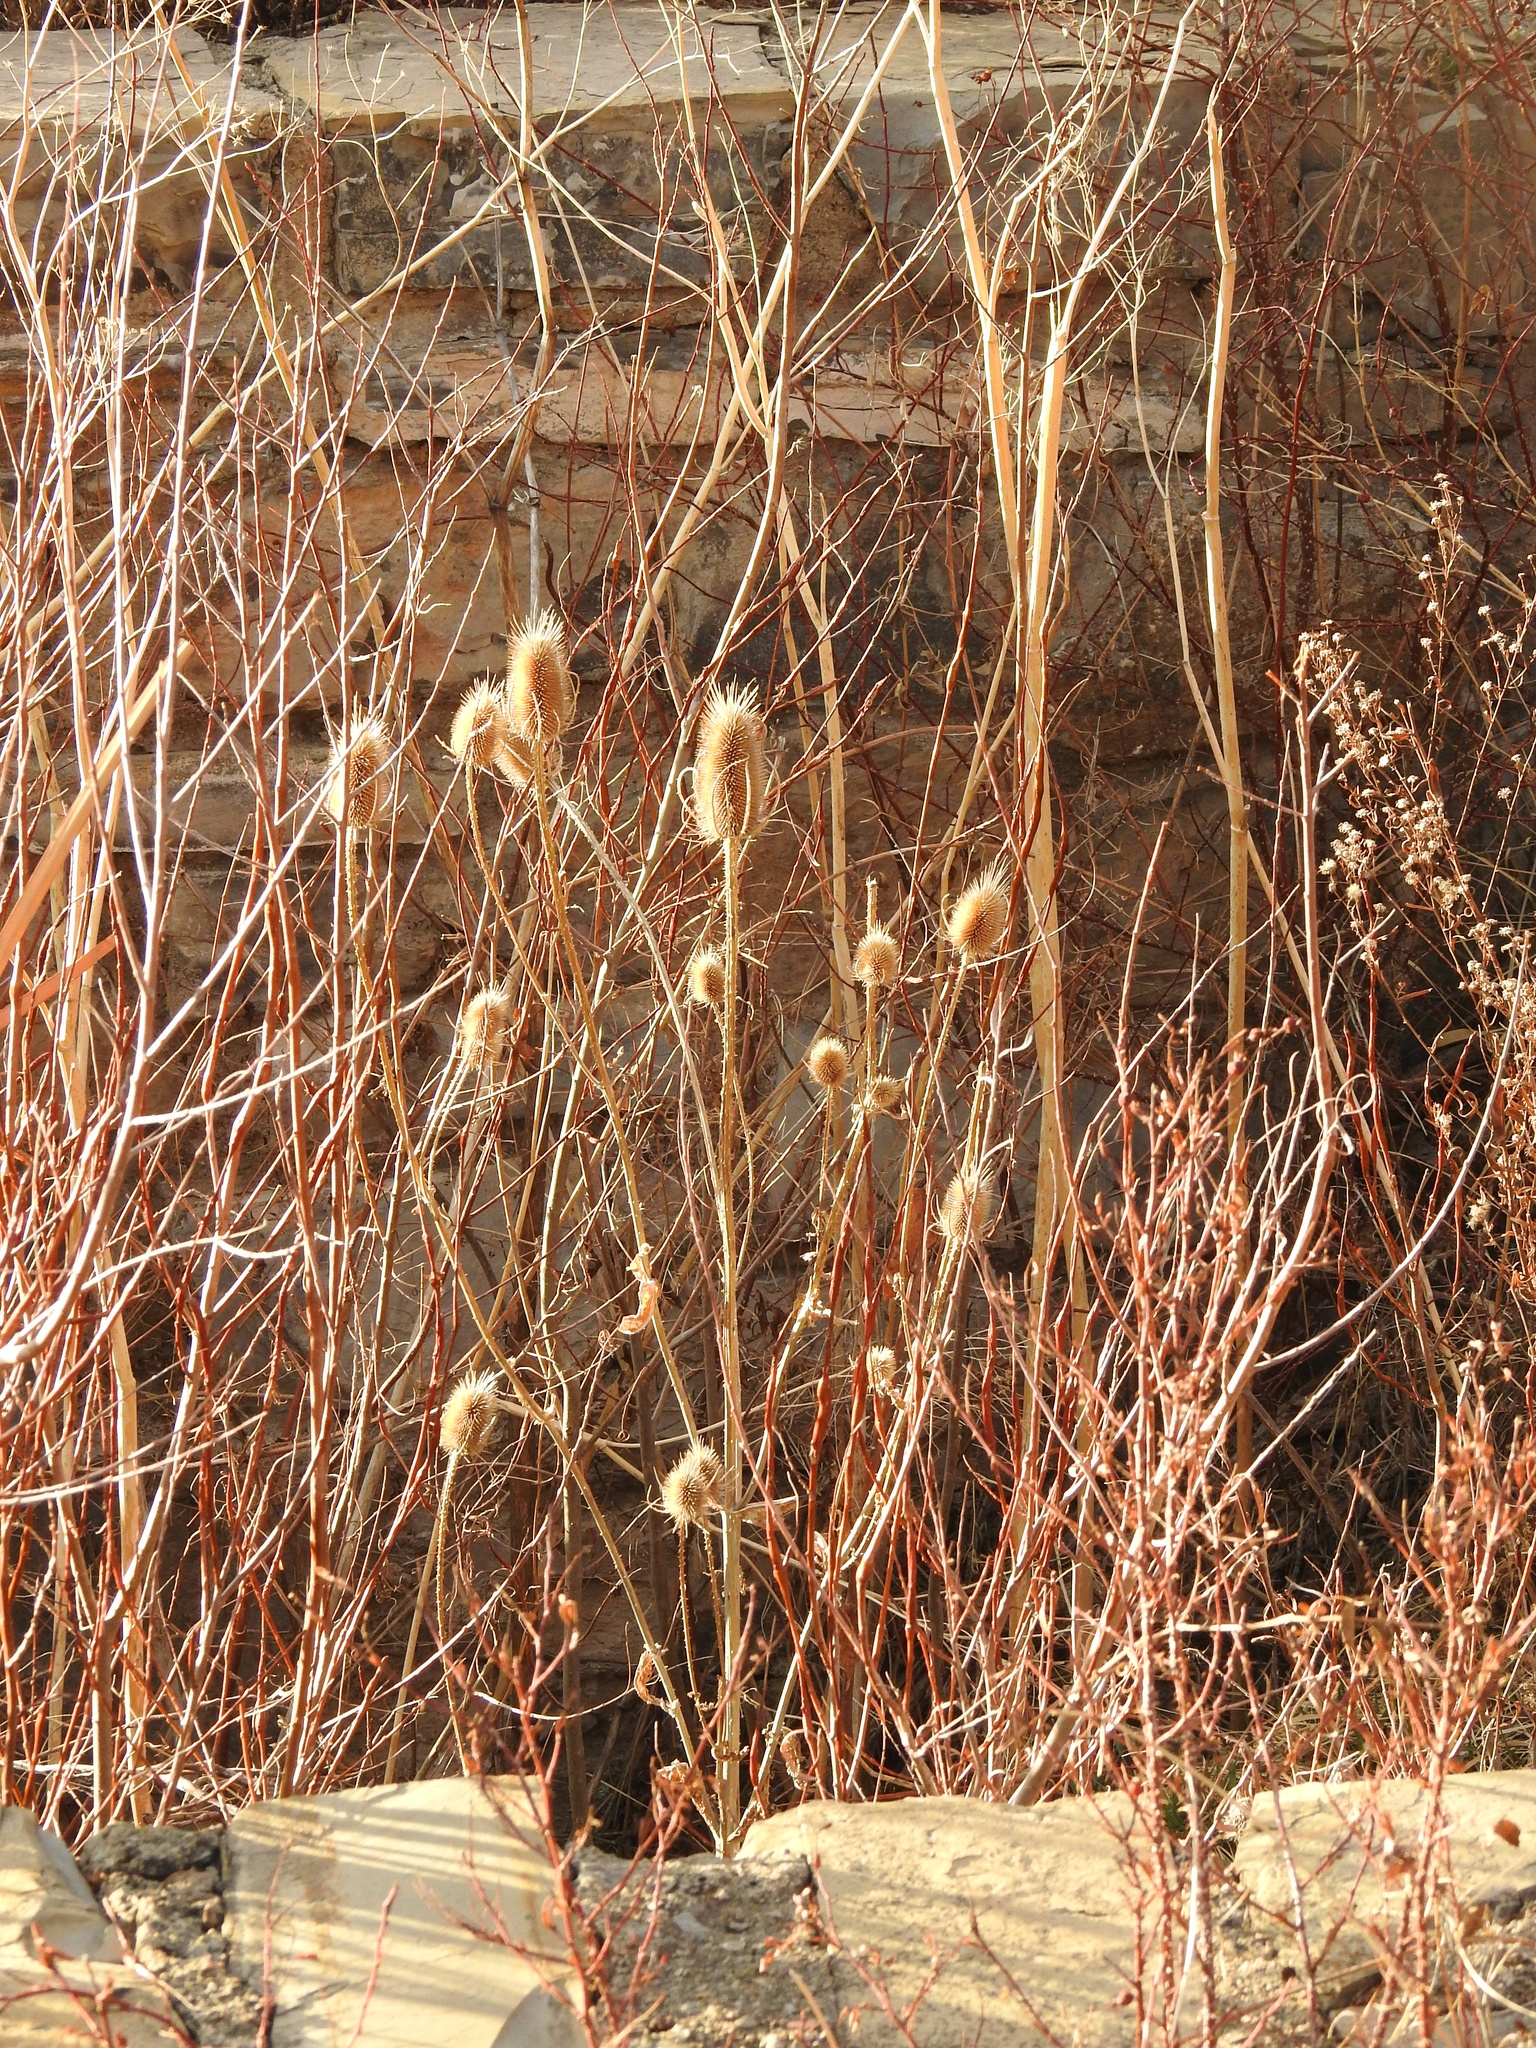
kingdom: Plantae
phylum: Tracheophyta
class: Magnoliopsida
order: Dipsacales
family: Caprifoliaceae
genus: Dipsacus
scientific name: Dipsacus fullonum
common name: Teasel
